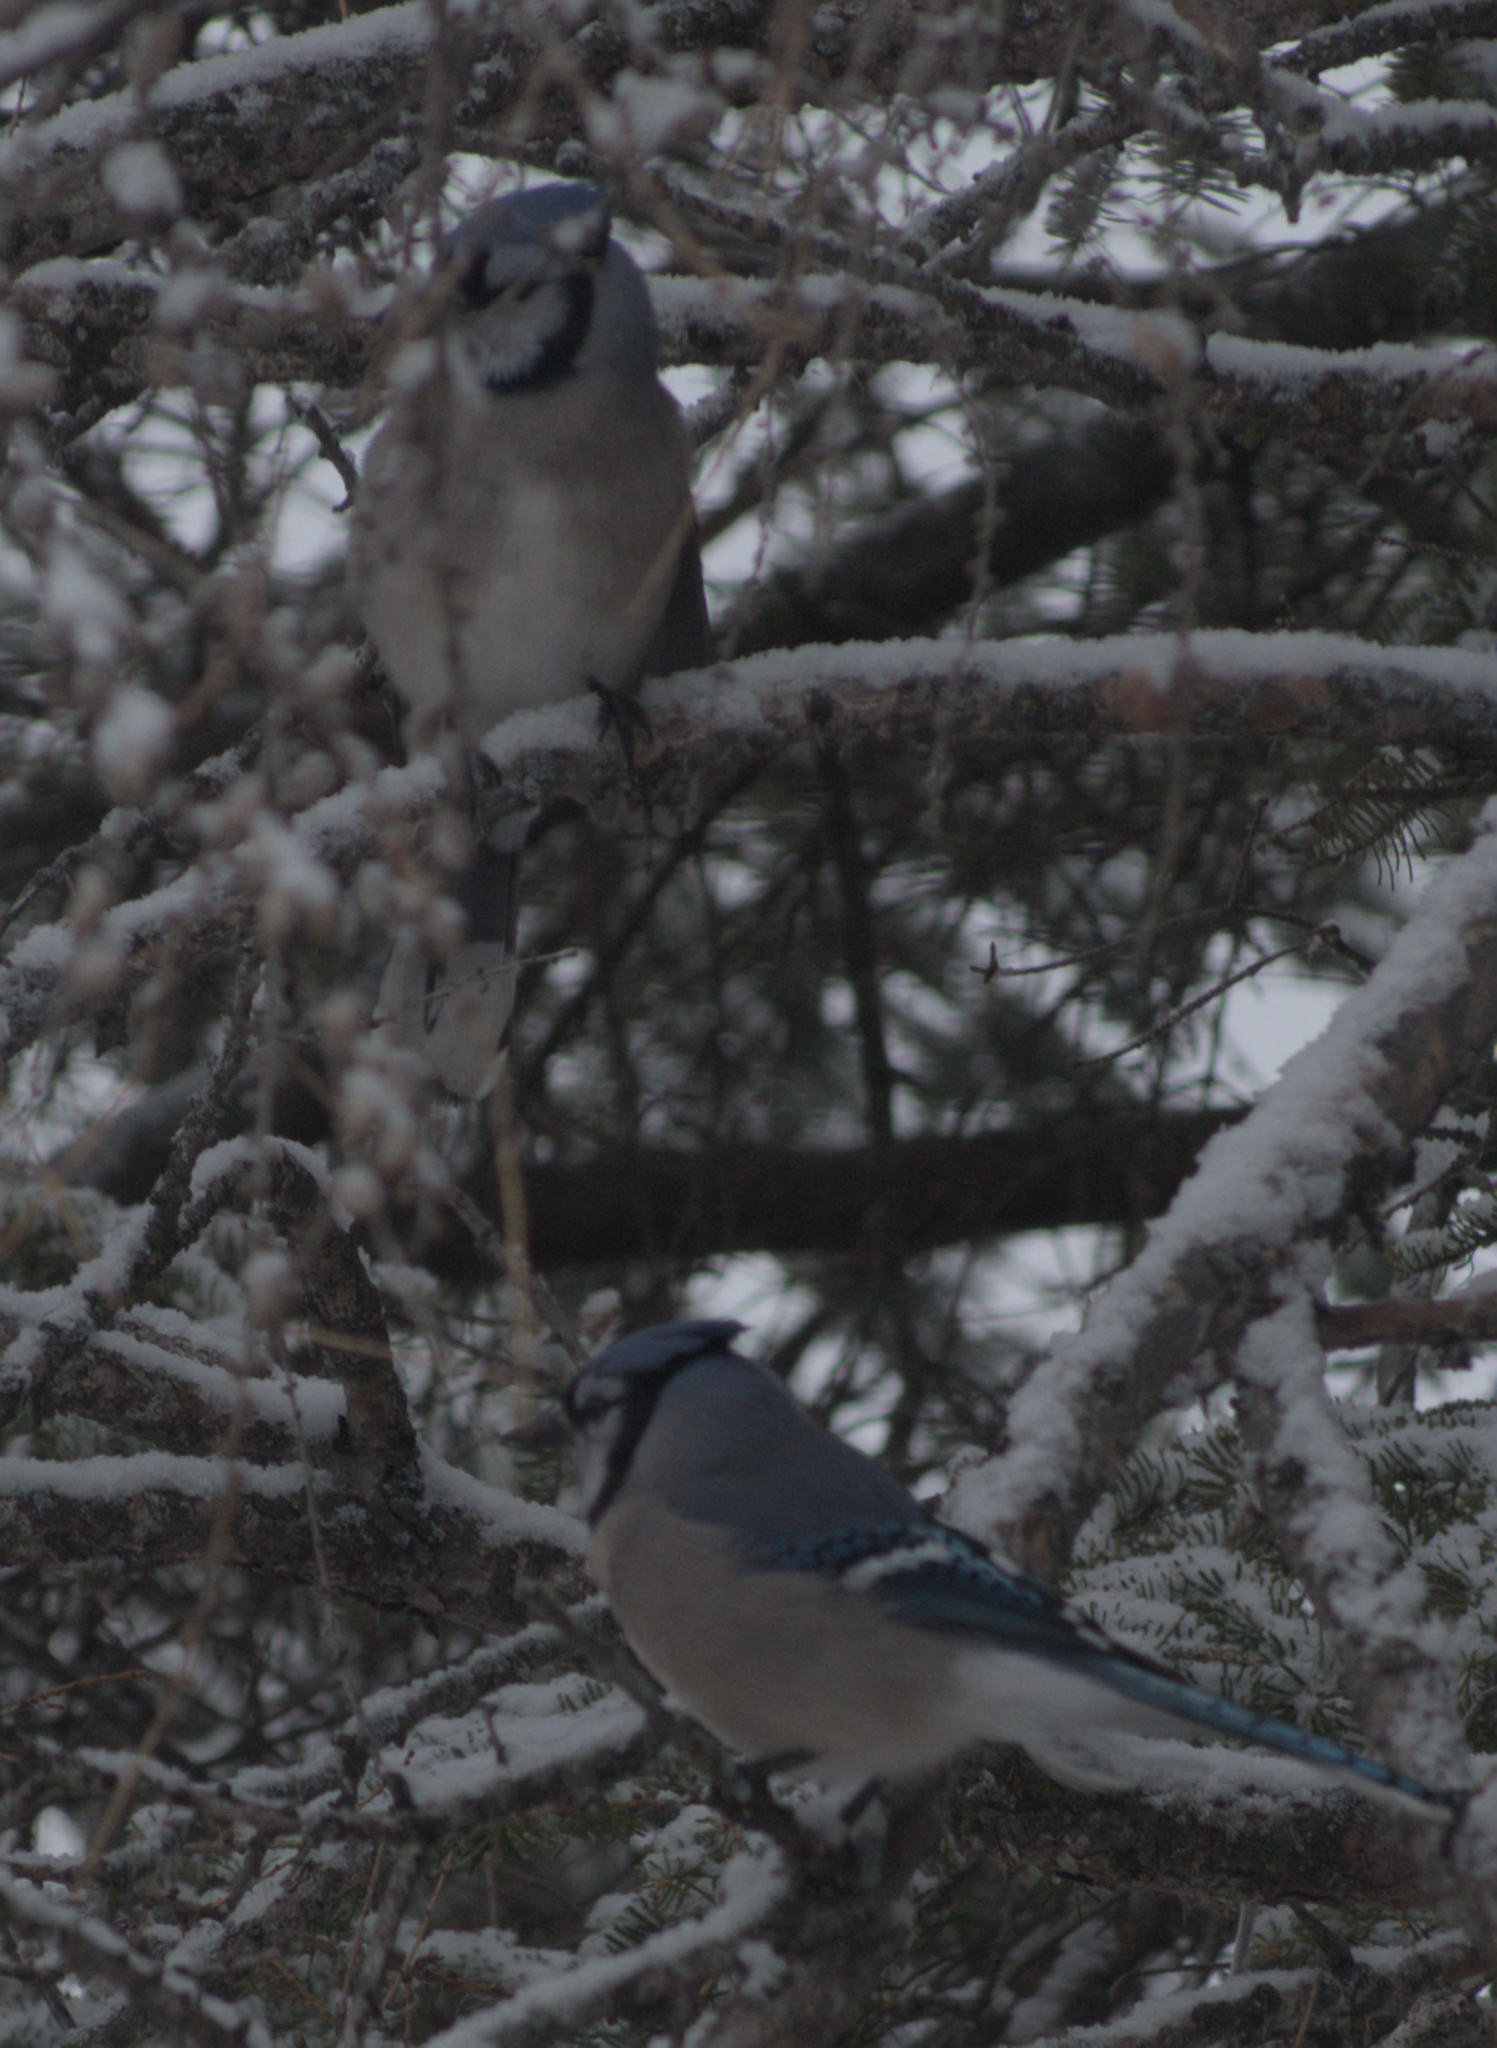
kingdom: Animalia
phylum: Chordata
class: Aves
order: Passeriformes
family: Corvidae
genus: Cyanocitta
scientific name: Cyanocitta cristata
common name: Blue jay
